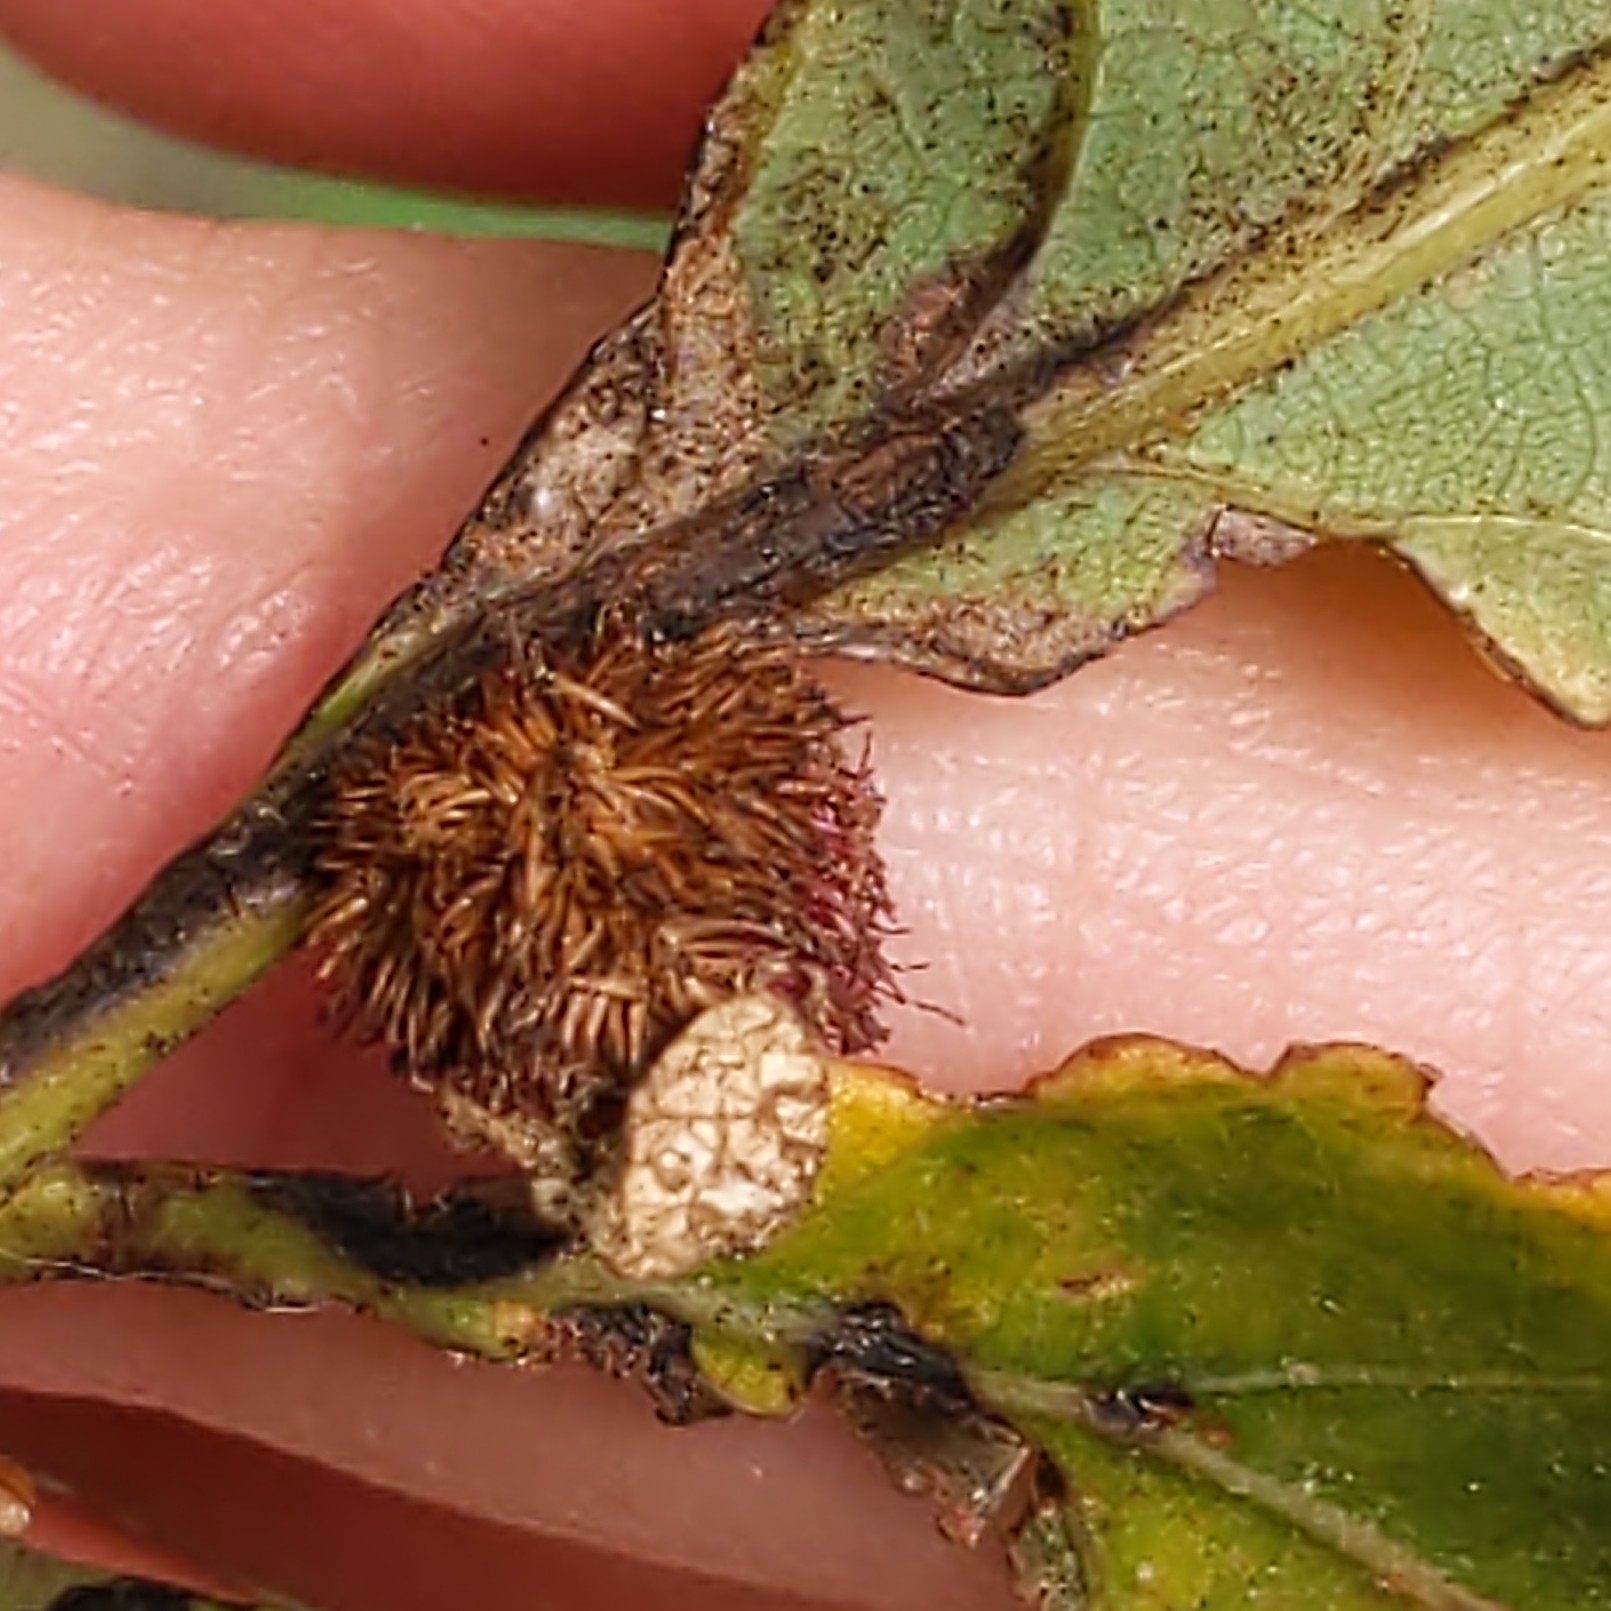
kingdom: Animalia
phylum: Arthropoda
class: Insecta
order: Hymenoptera
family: Cynipidae
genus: Acraspis
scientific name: Acraspis villosa
